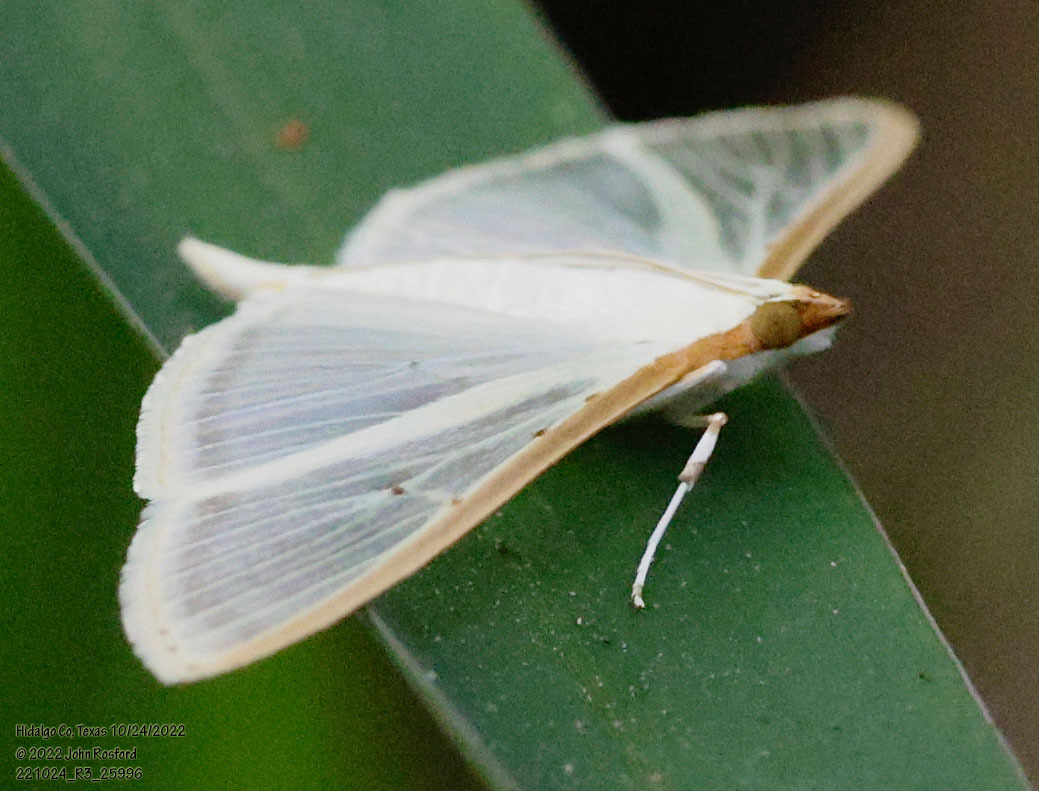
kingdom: Animalia
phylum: Arthropoda
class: Insecta
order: Lepidoptera
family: Crambidae
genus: Palpita
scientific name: Palpita quadristigmalis
